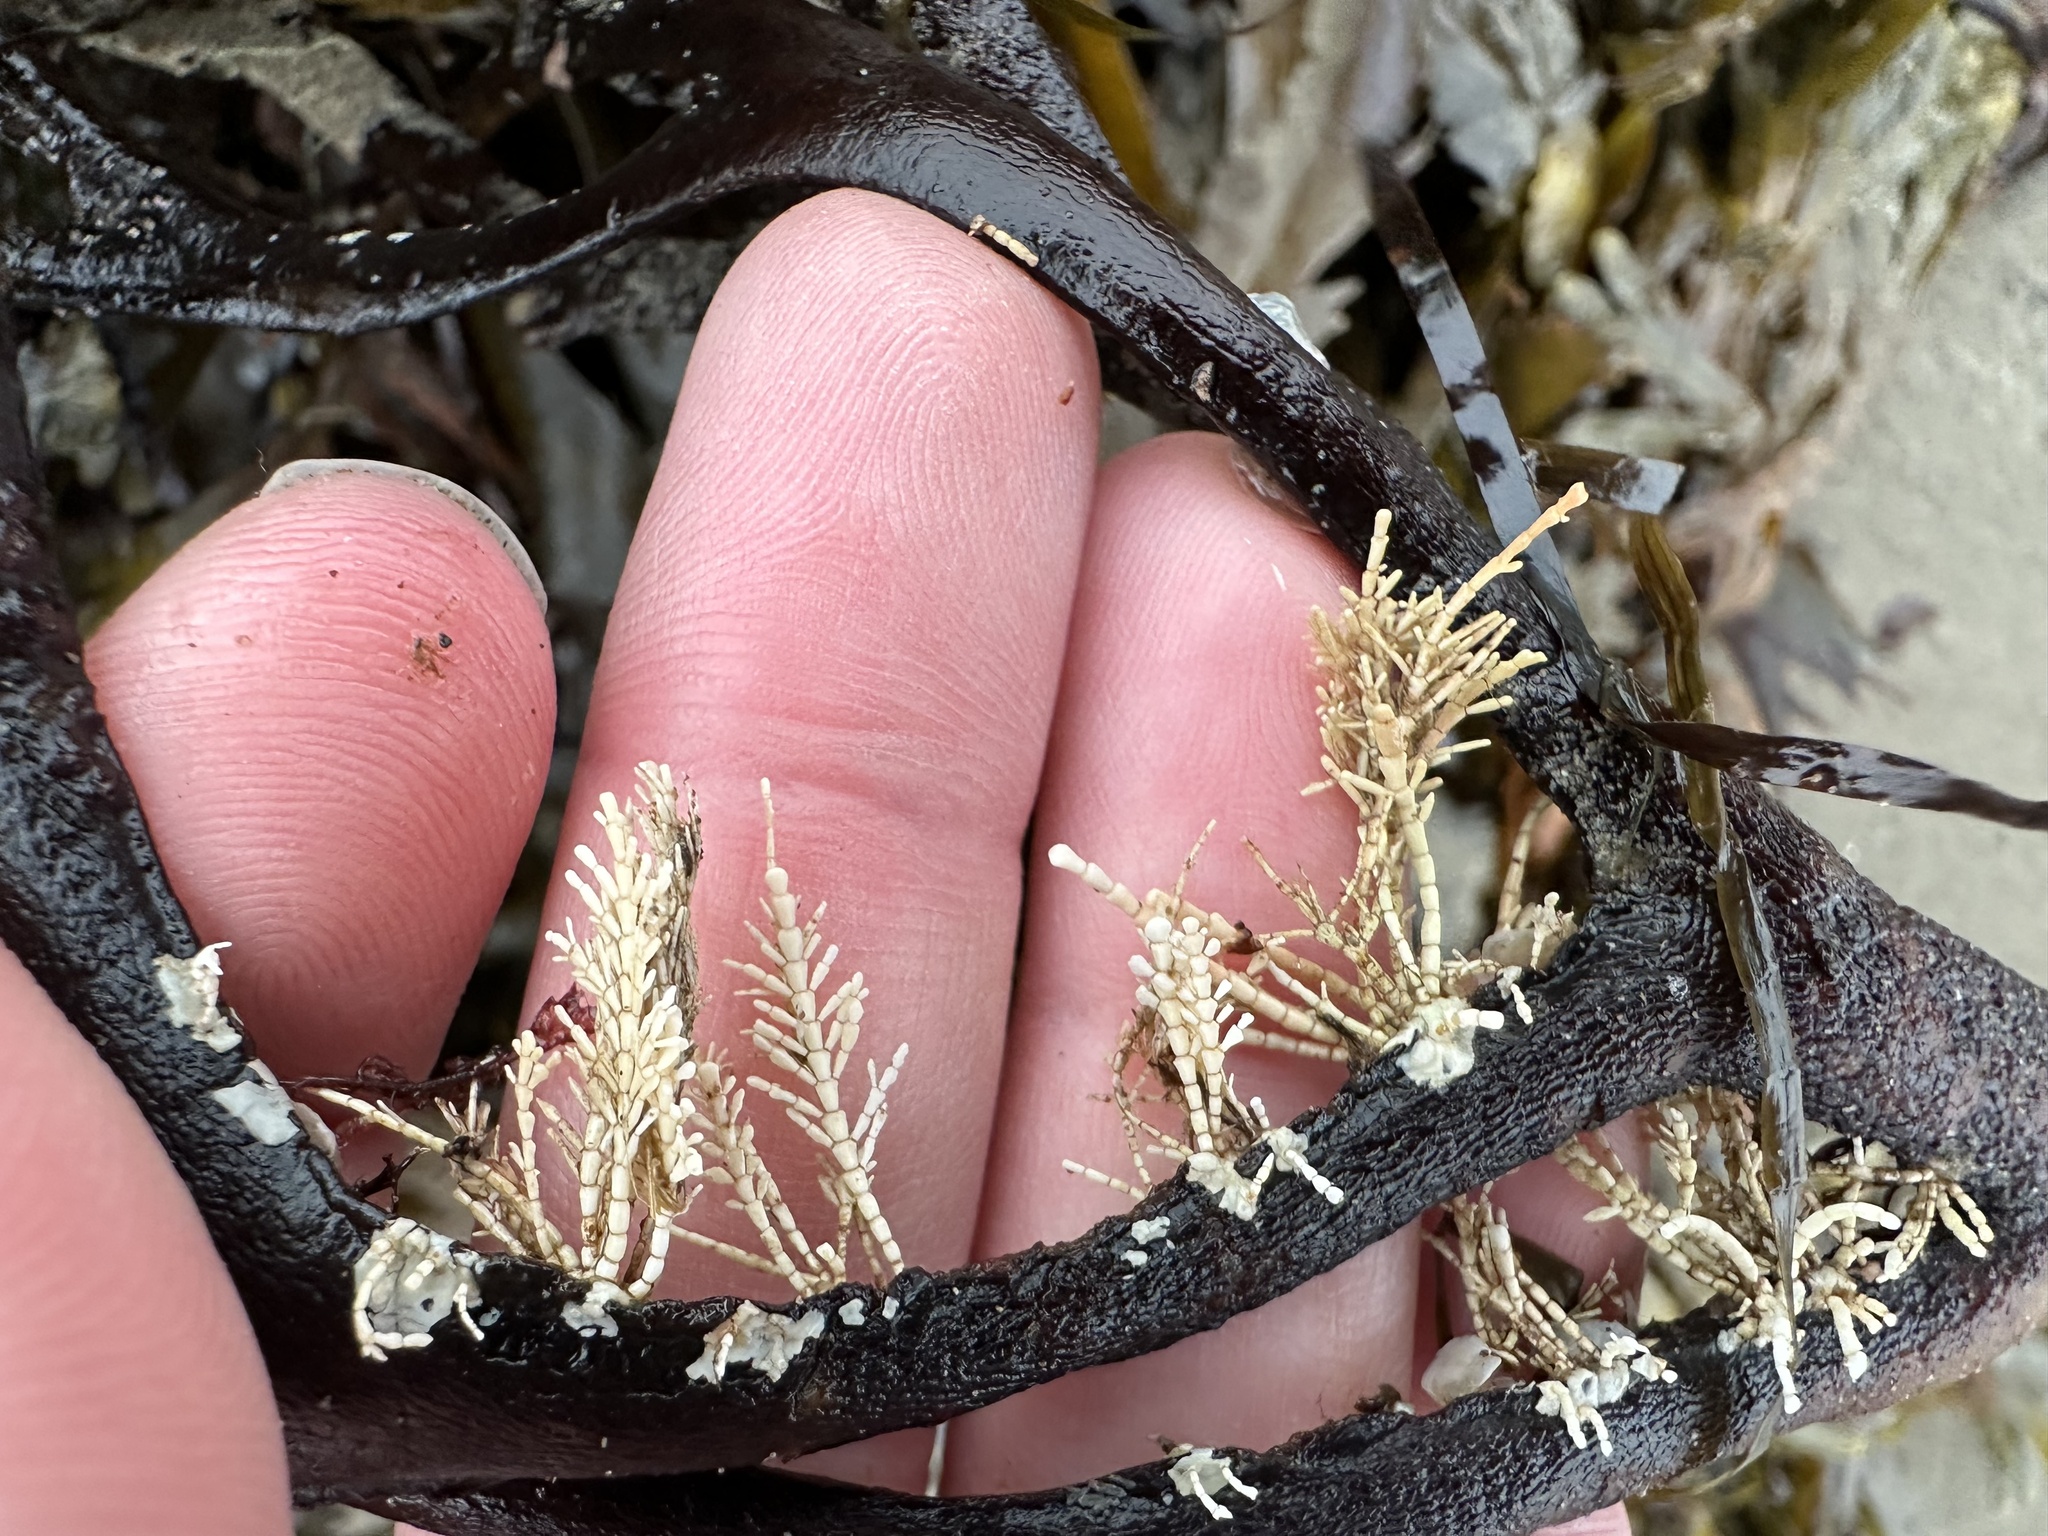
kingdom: Plantae
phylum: Rhodophyta
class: Florideophyceae
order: Corallinales
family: Corallinaceae
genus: Corallina
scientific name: Corallina officinalis
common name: Coral weed
